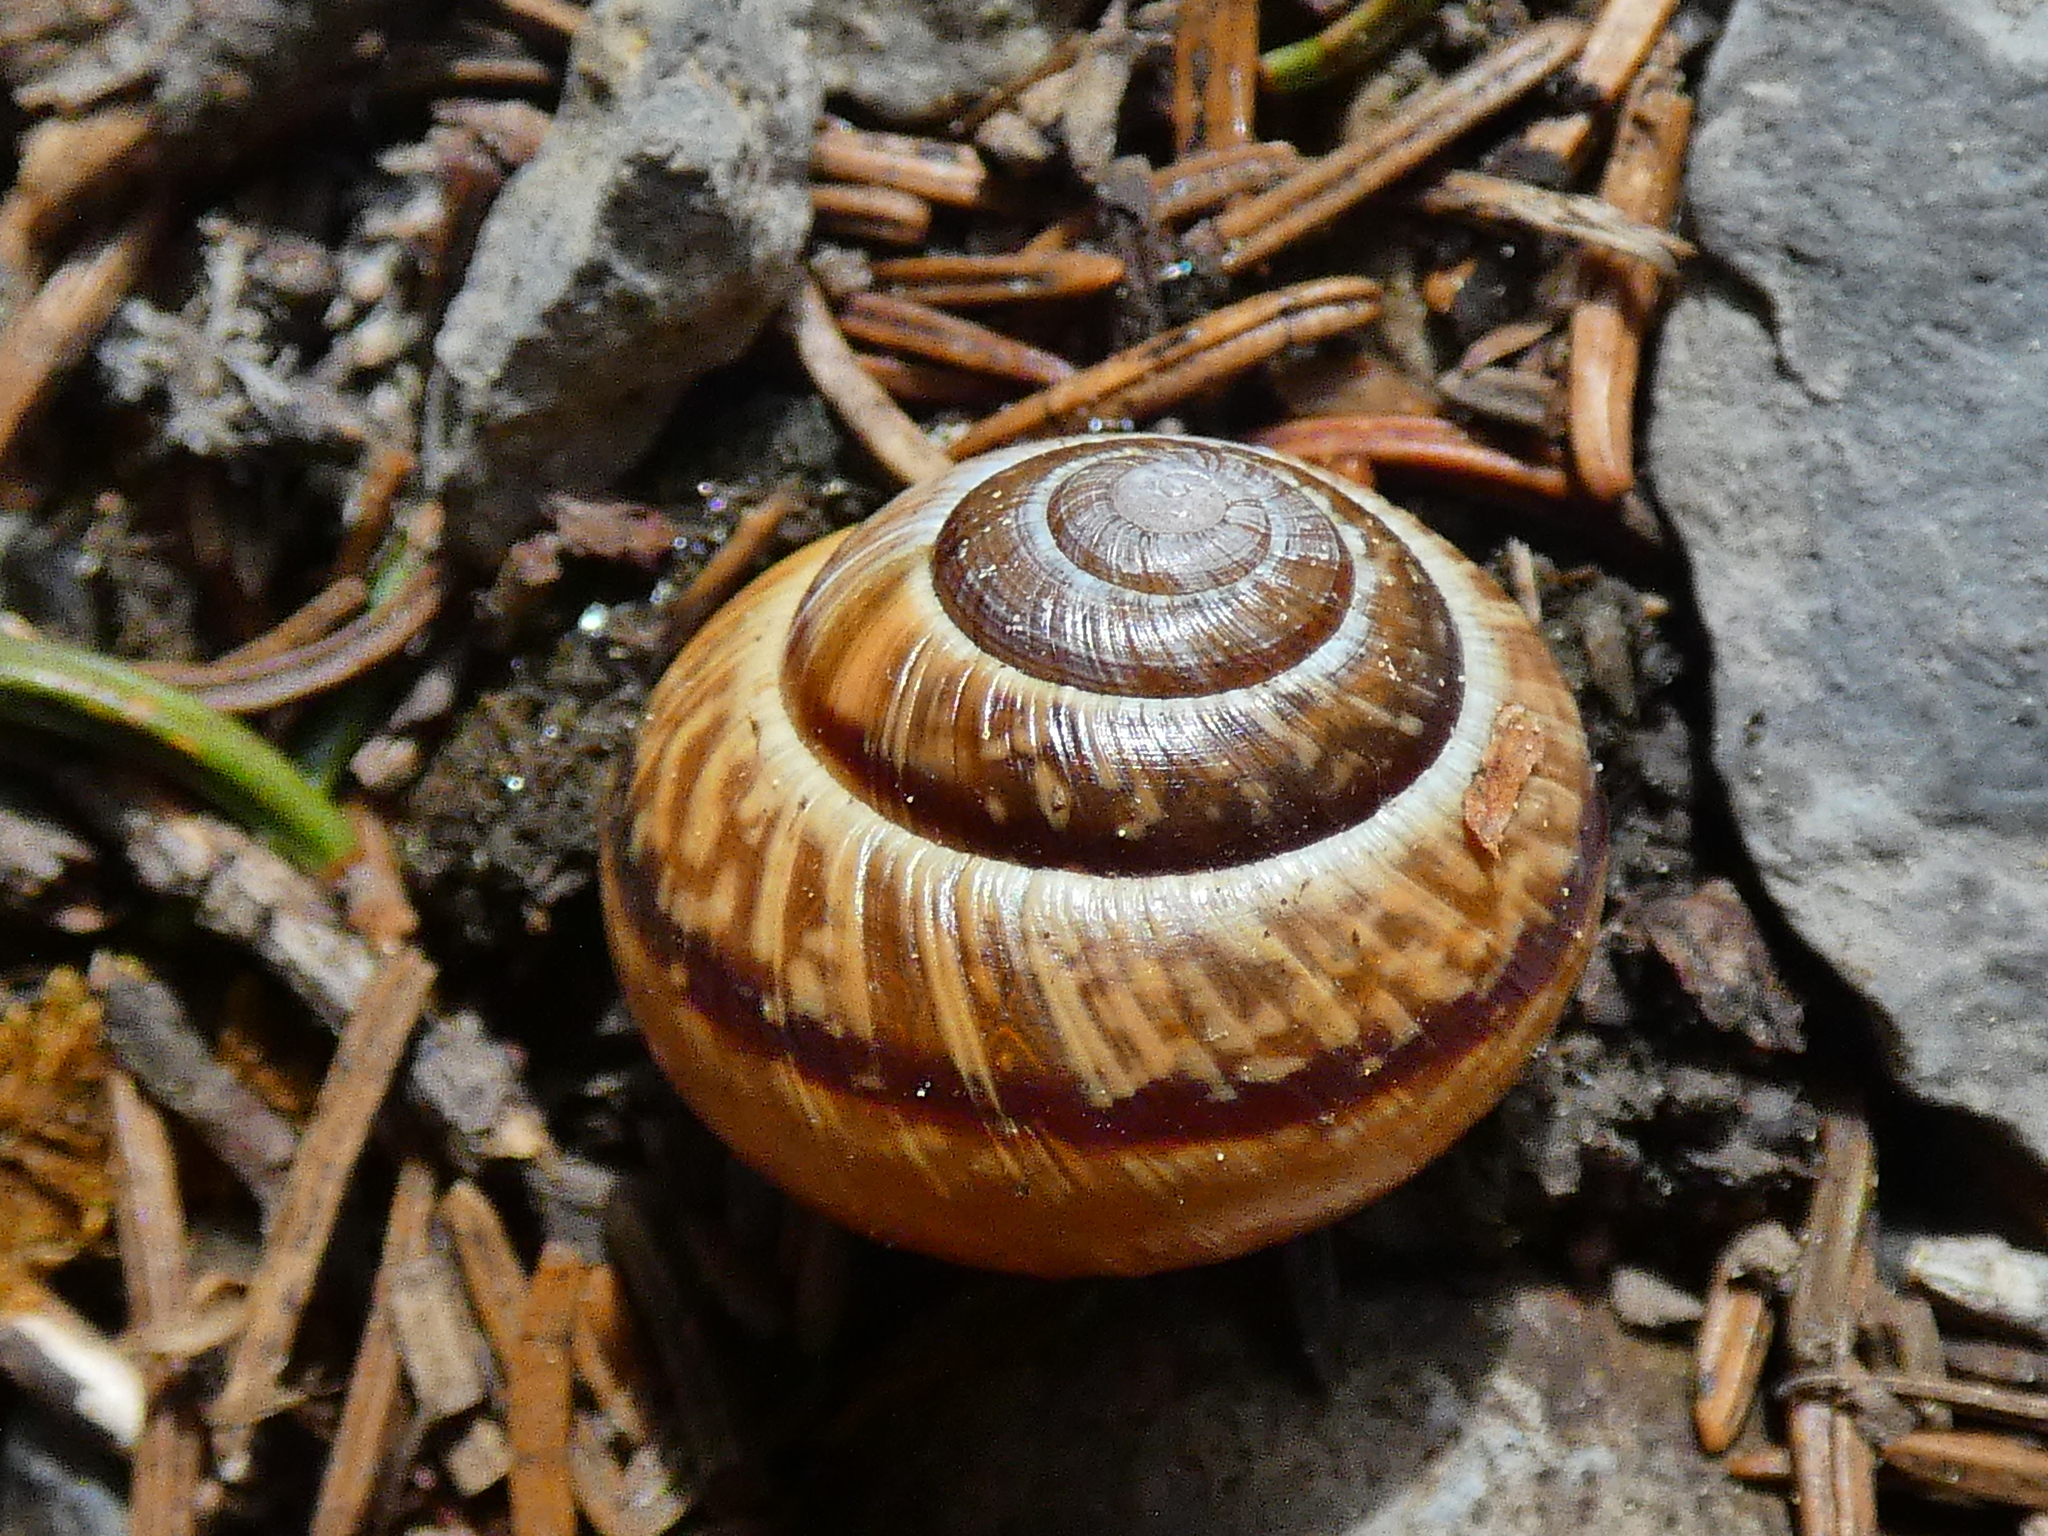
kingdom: Animalia
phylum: Mollusca
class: Gastropoda
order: Stylommatophora
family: Helicidae
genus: Arianta
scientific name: Arianta arbustorum
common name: Copse snail
